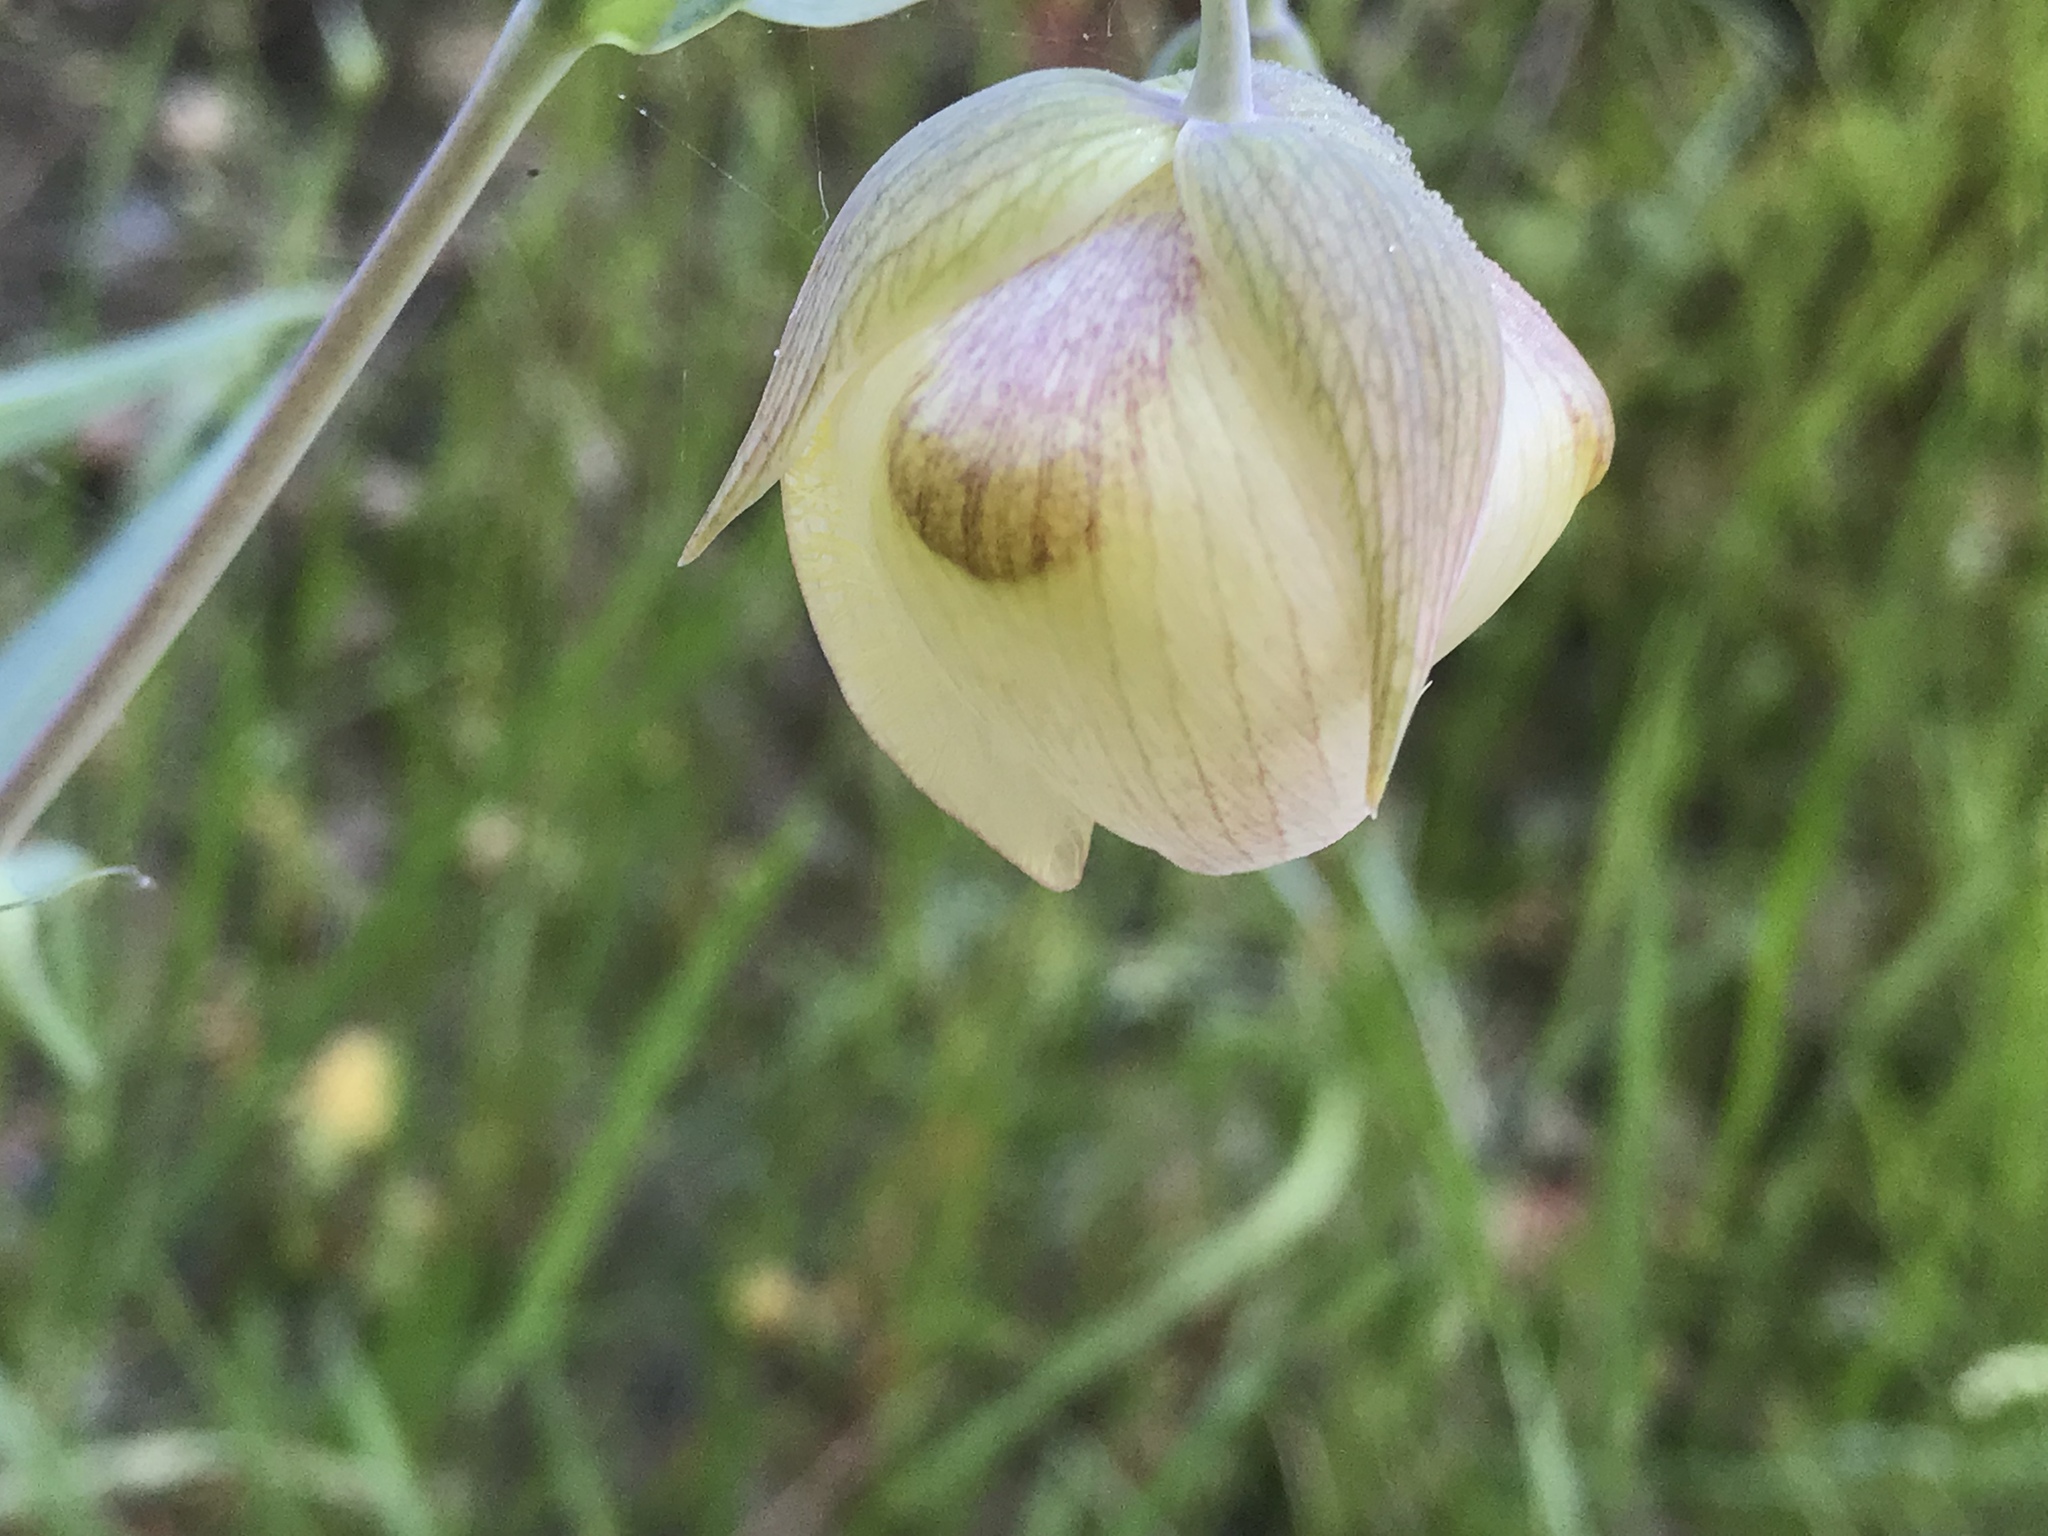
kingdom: Plantae
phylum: Tracheophyta
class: Liliopsida
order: Liliales
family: Liliaceae
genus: Calochortus
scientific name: Calochortus albus
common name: Fairy-lantern
